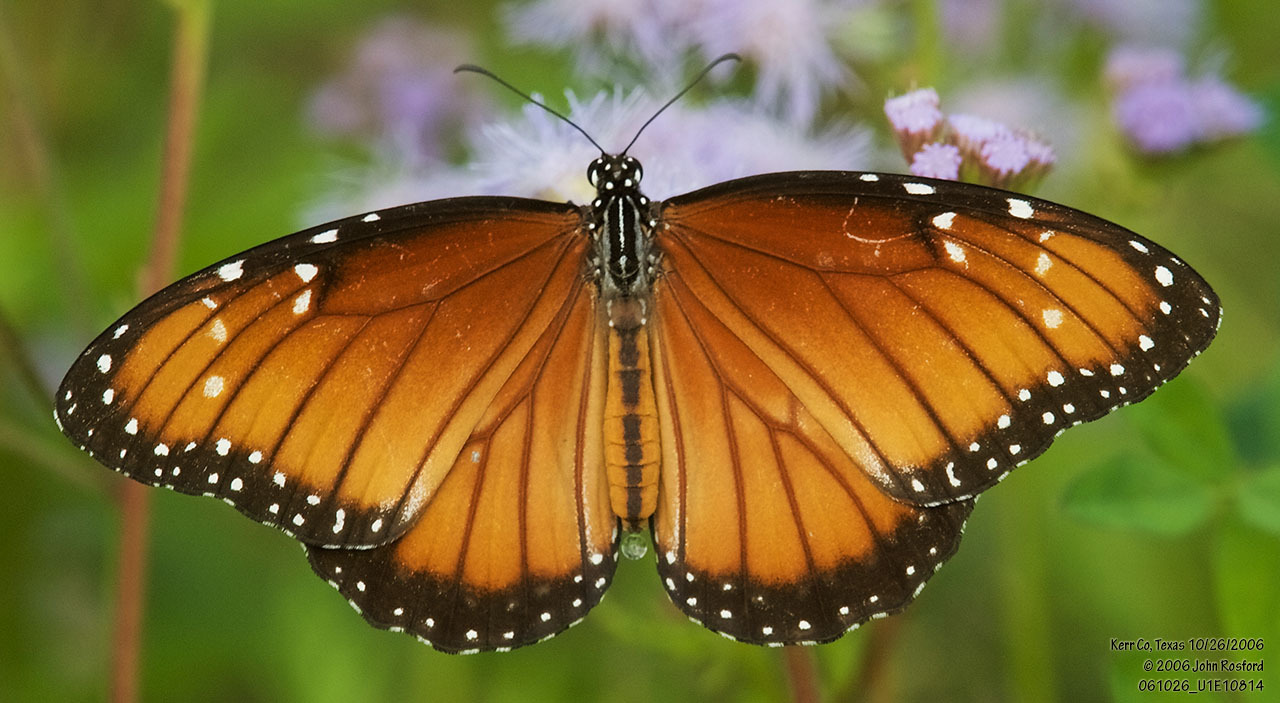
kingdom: Animalia
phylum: Arthropoda
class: Insecta
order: Lepidoptera
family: Nymphalidae
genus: Danaus
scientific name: Danaus eresimus
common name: Soldier
